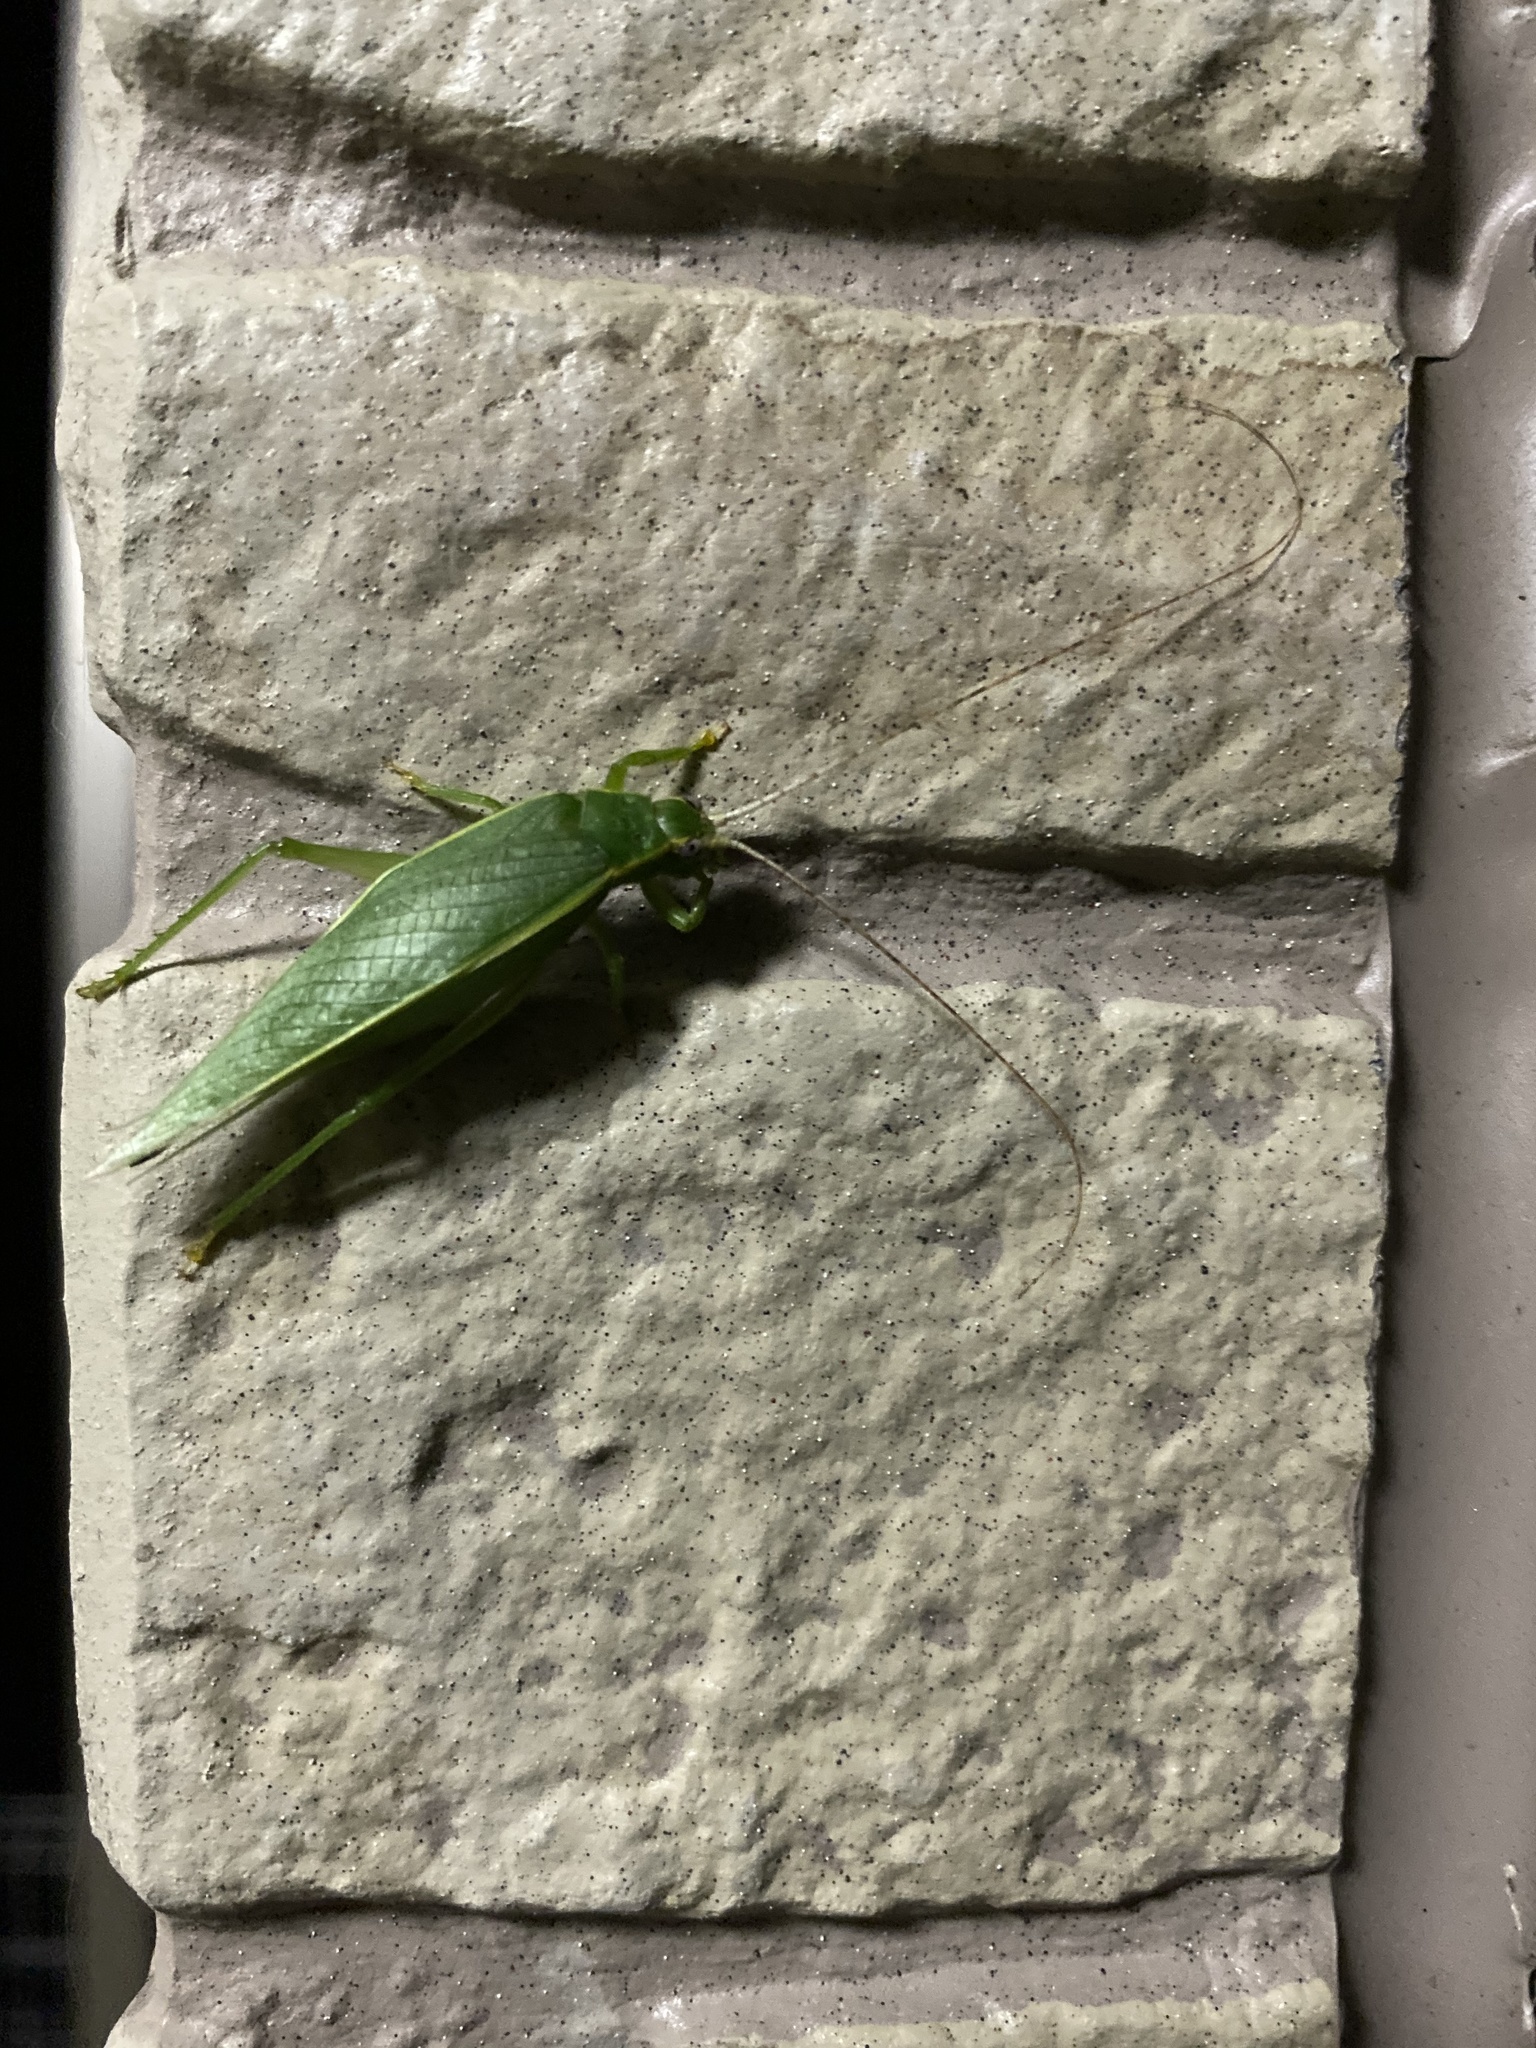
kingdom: Animalia
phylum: Arthropoda
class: Insecta
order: Orthoptera
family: Gryllidae
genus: Truljalia
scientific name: Truljalia hibinonis
